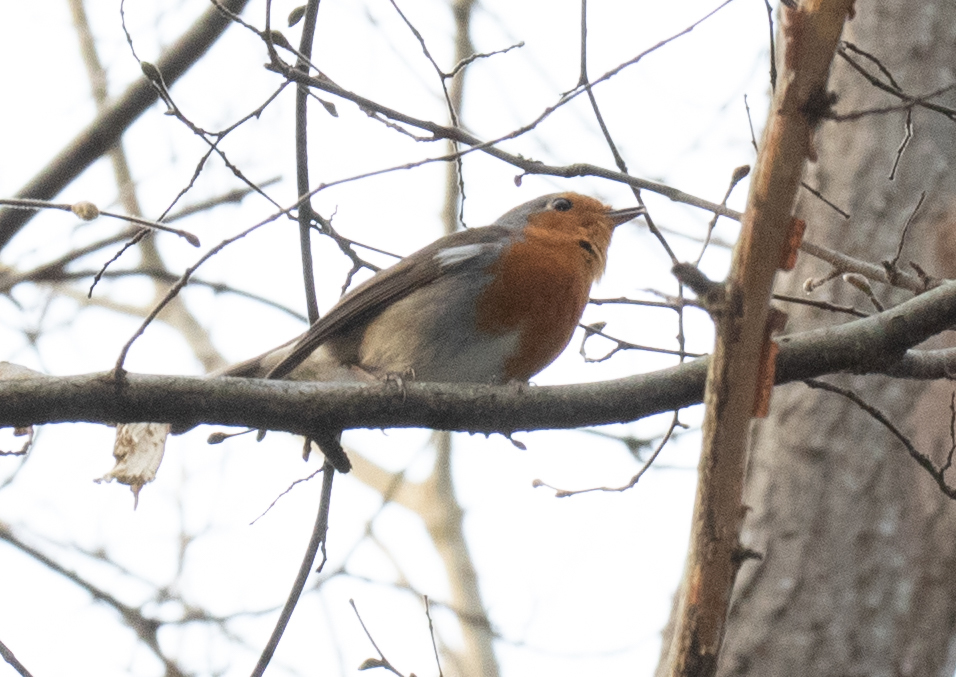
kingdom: Animalia
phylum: Chordata
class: Aves
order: Passeriformes
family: Muscicapidae
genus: Erithacus
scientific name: Erithacus rubecula
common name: European robin
